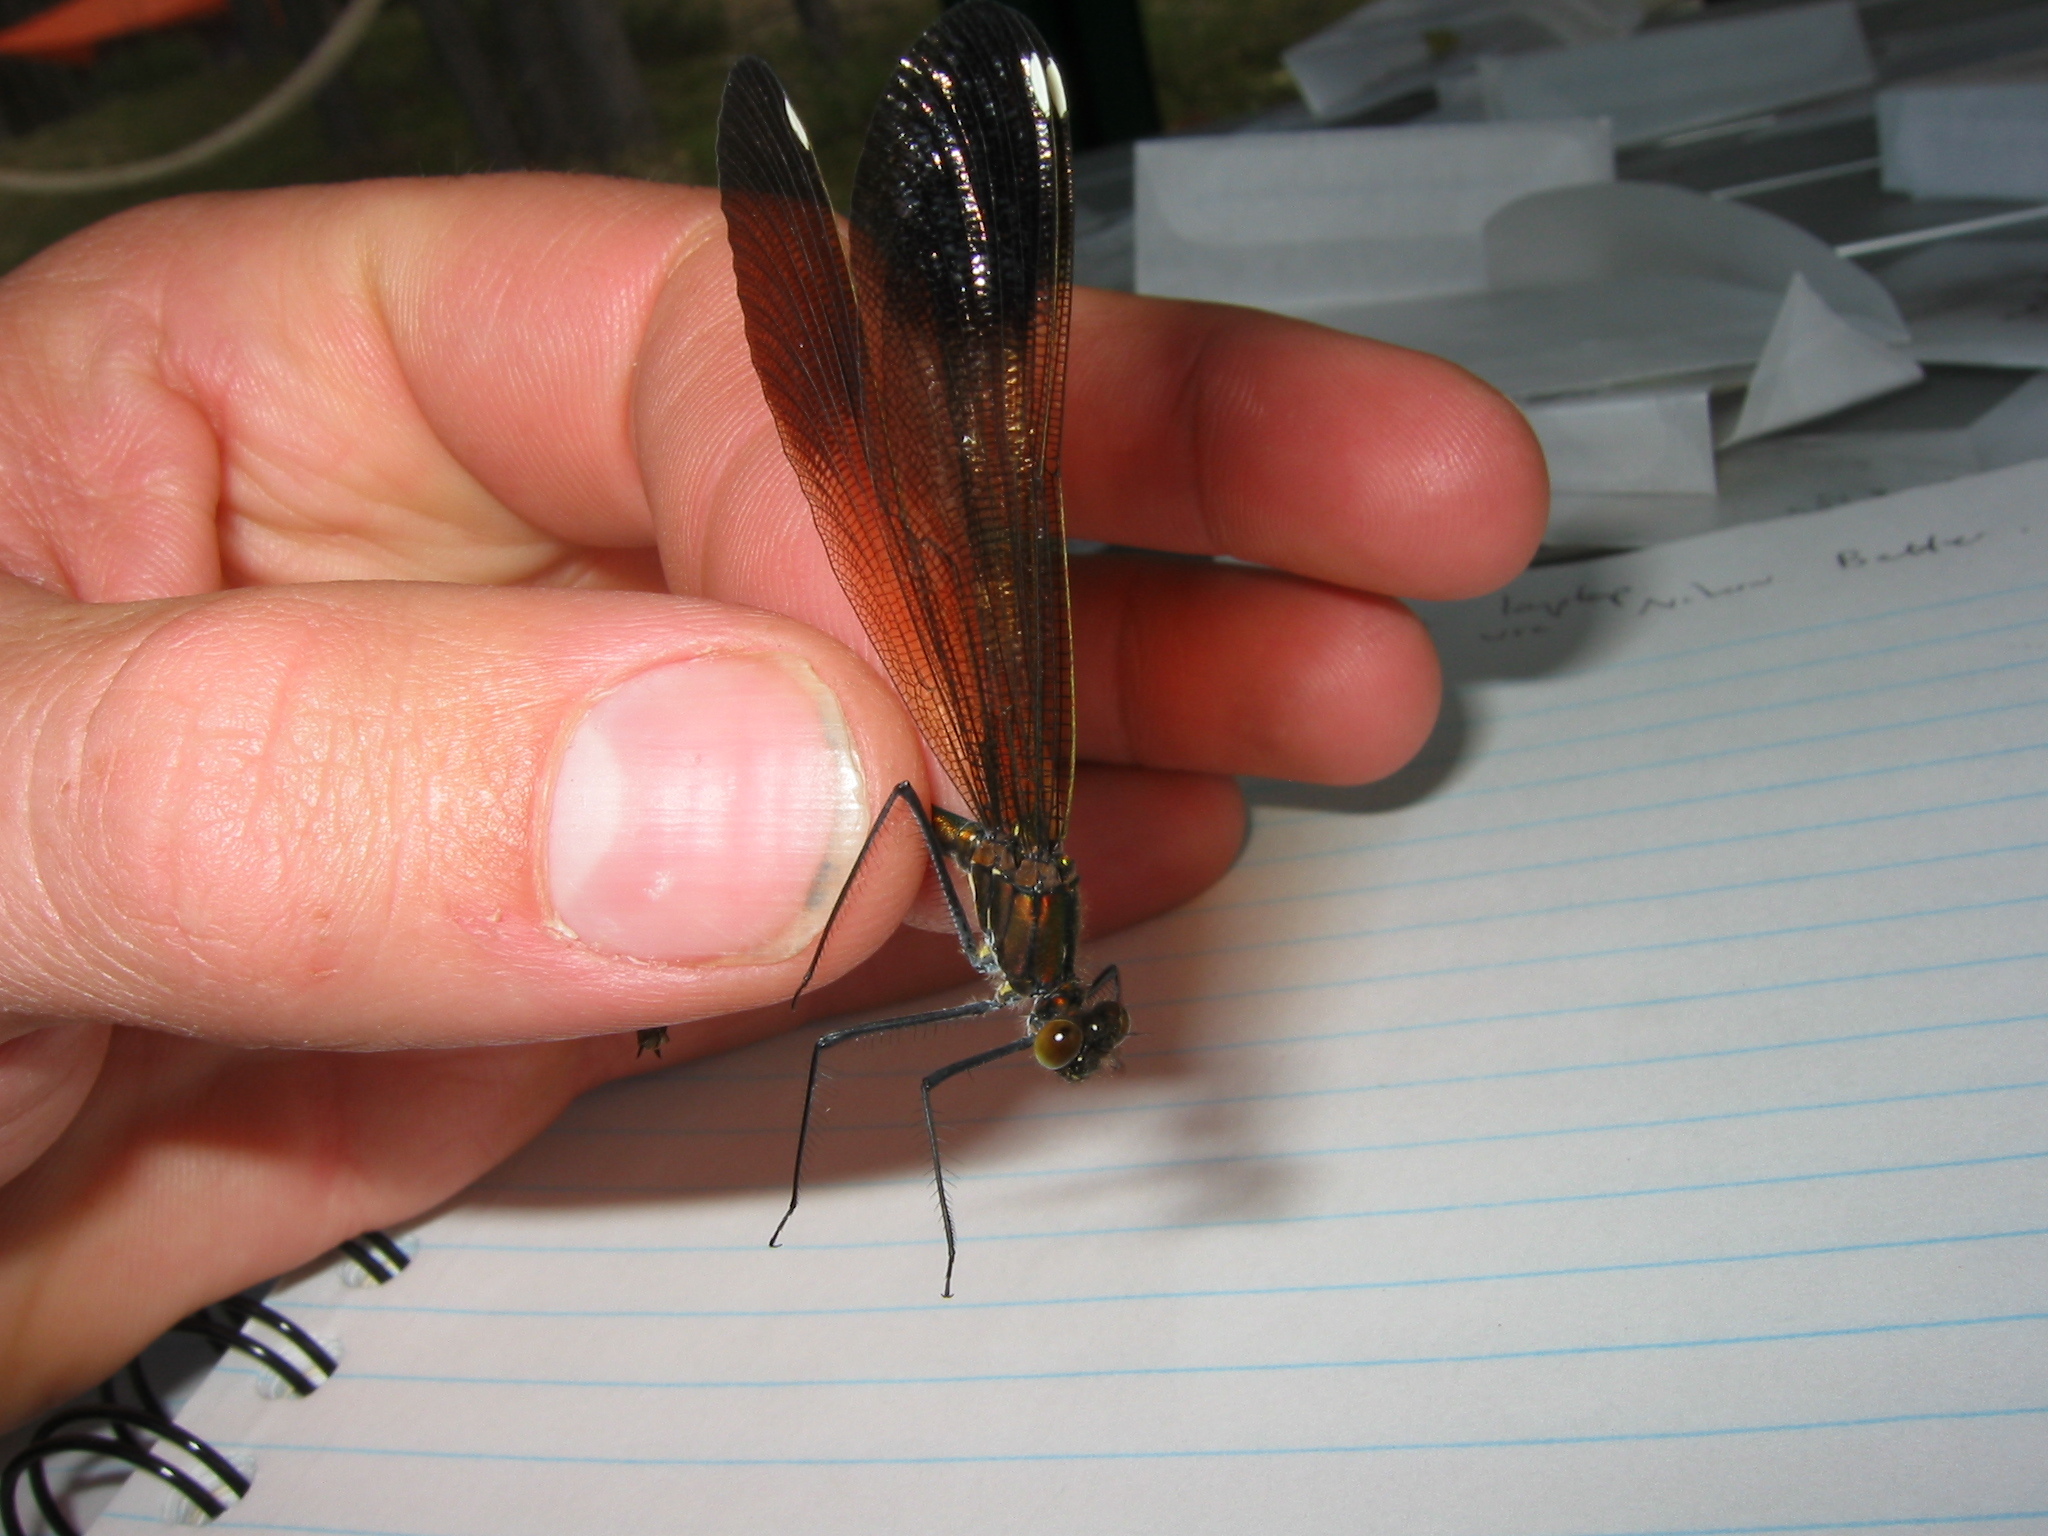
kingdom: Animalia
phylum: Arthropoda
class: Insecta
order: Odonata
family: Calopterygidae
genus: Calopteryx
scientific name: Calopteryx aequabilis
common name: River jewelwing
